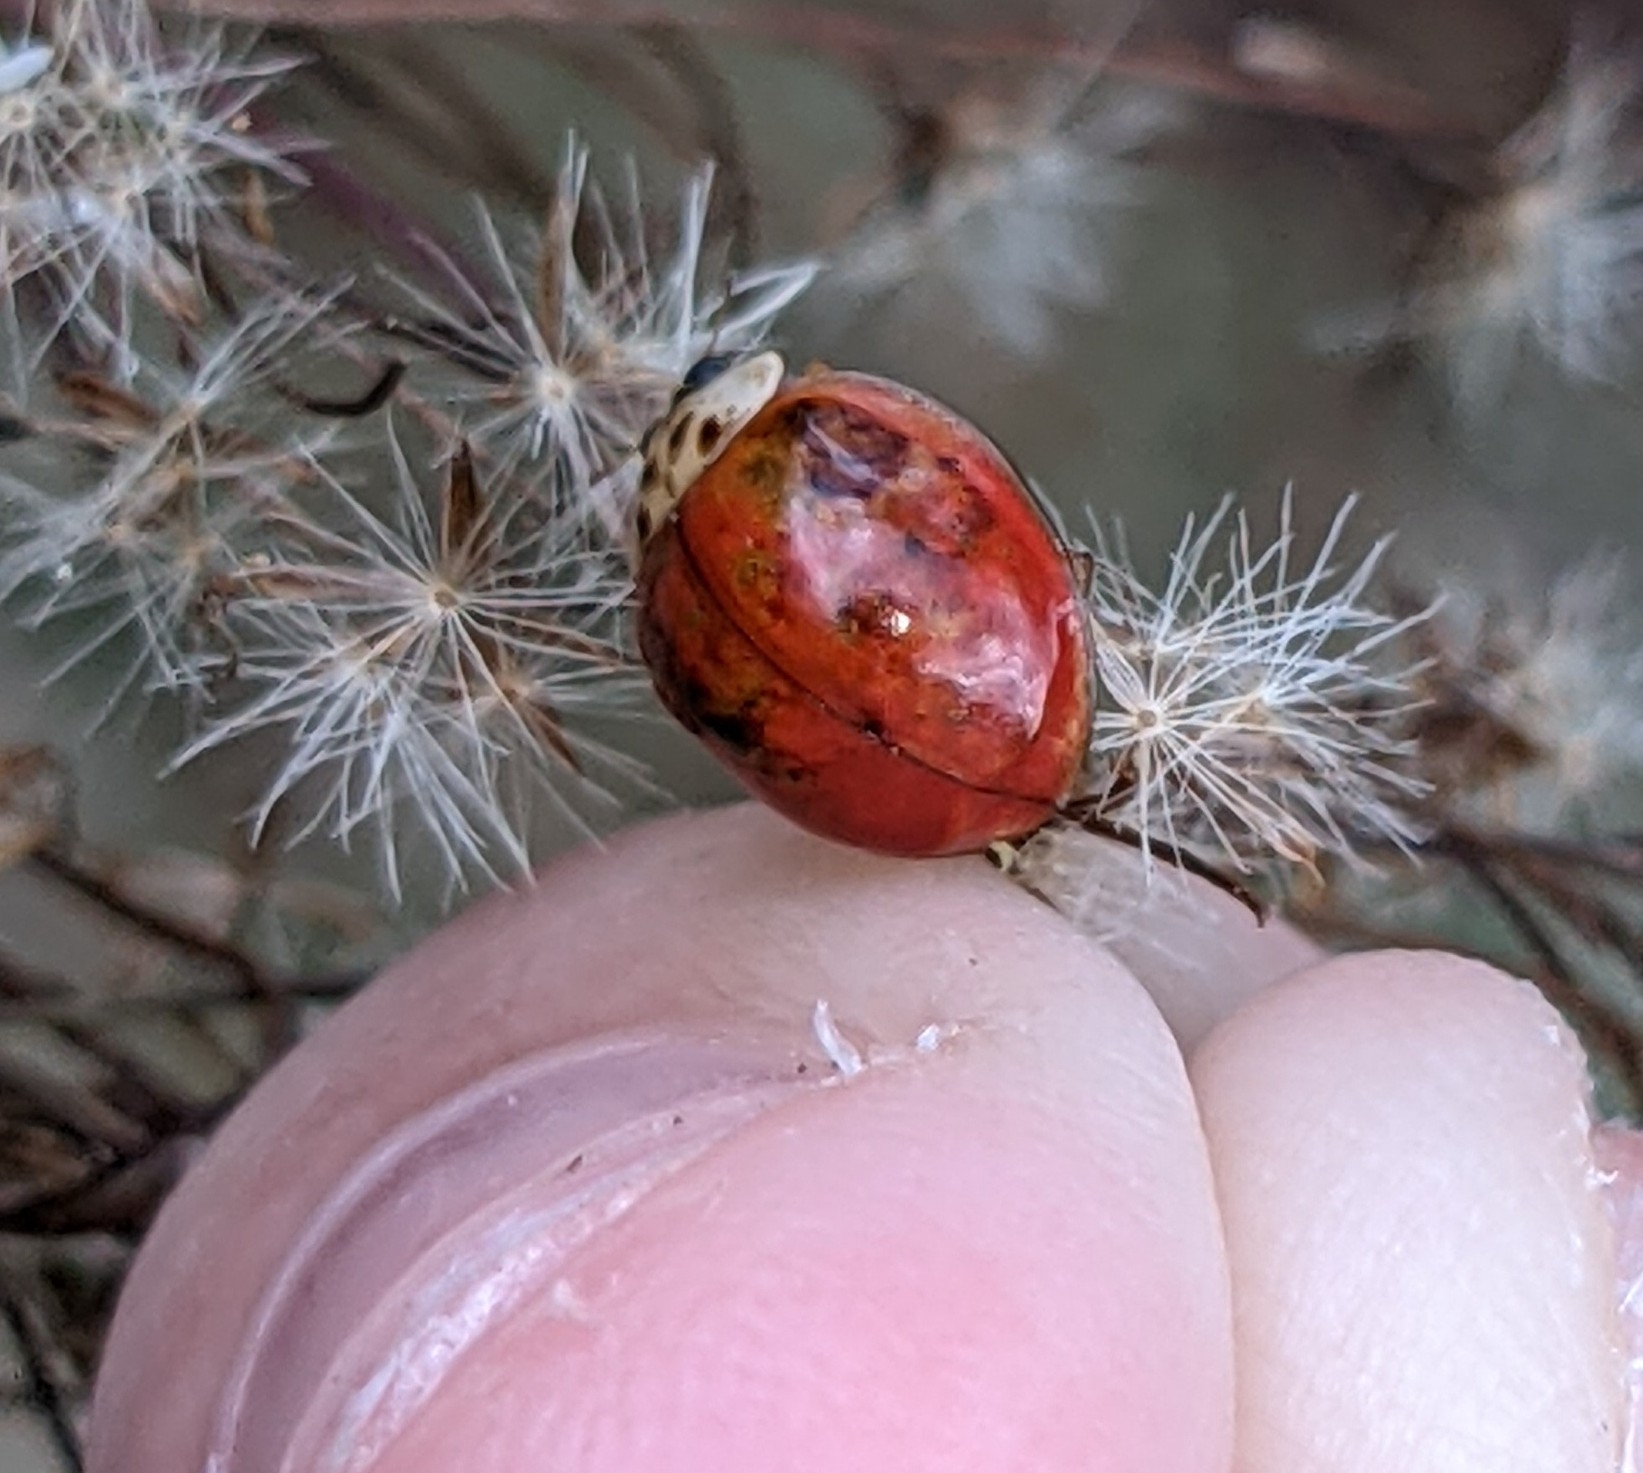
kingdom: Animalia
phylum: Arthropoda
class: Insecta
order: Coleoptera
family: Coccinellidae
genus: Harmonia
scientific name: Harmonia axyridis
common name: Harlequin ladybird
